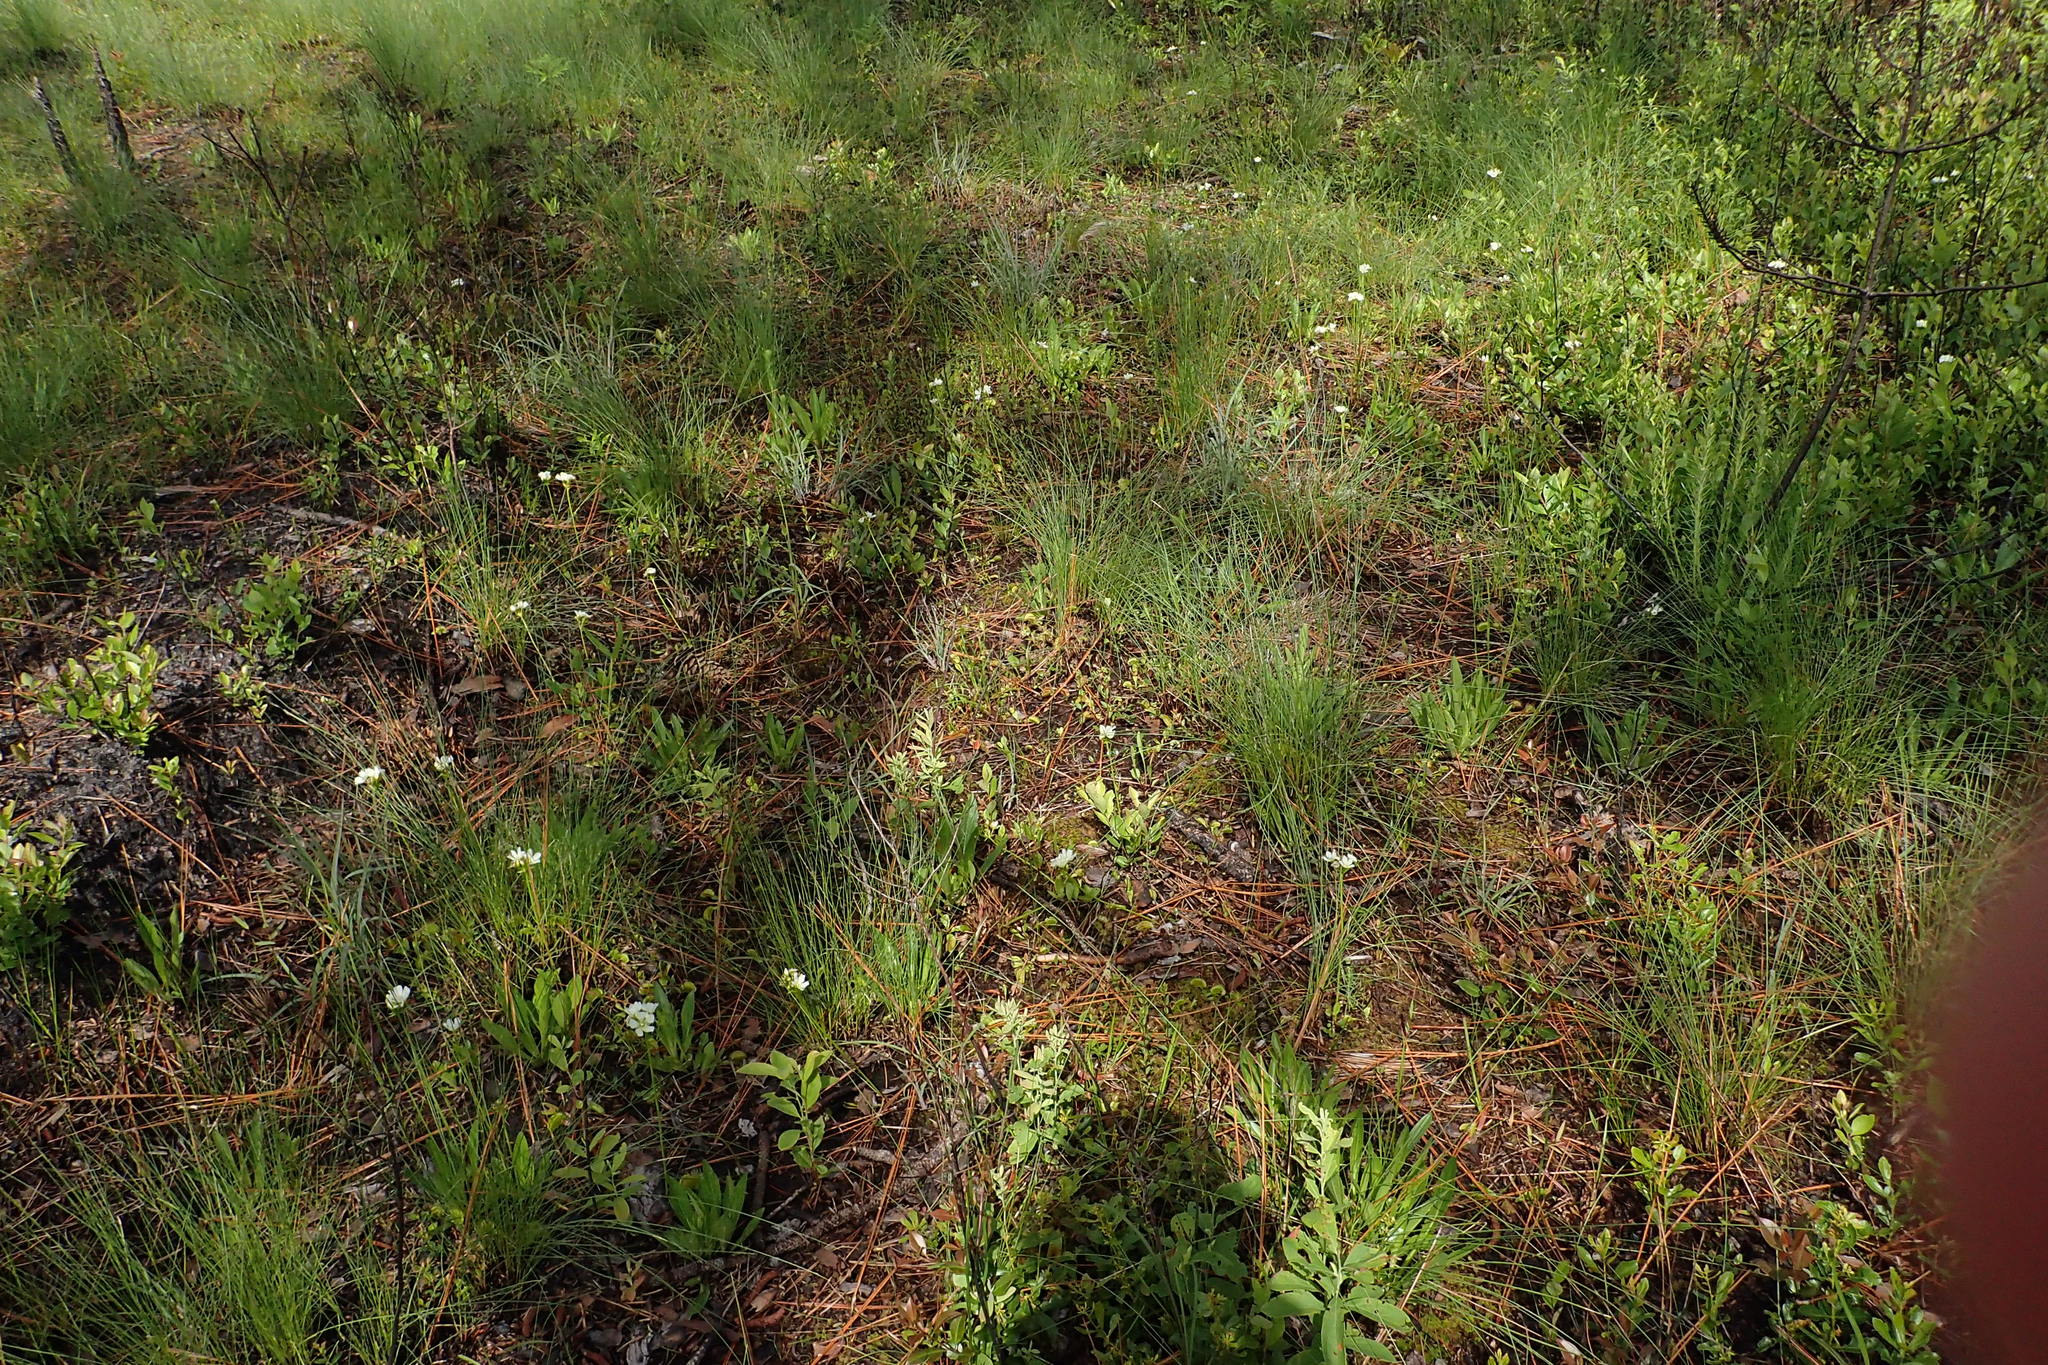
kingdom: Plantae
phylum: Tracheophyta
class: Magnoliopsida
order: Caryophyllales
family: Droseraceae
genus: Dionaea
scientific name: Dionaea muscipula
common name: Venus flytrap
